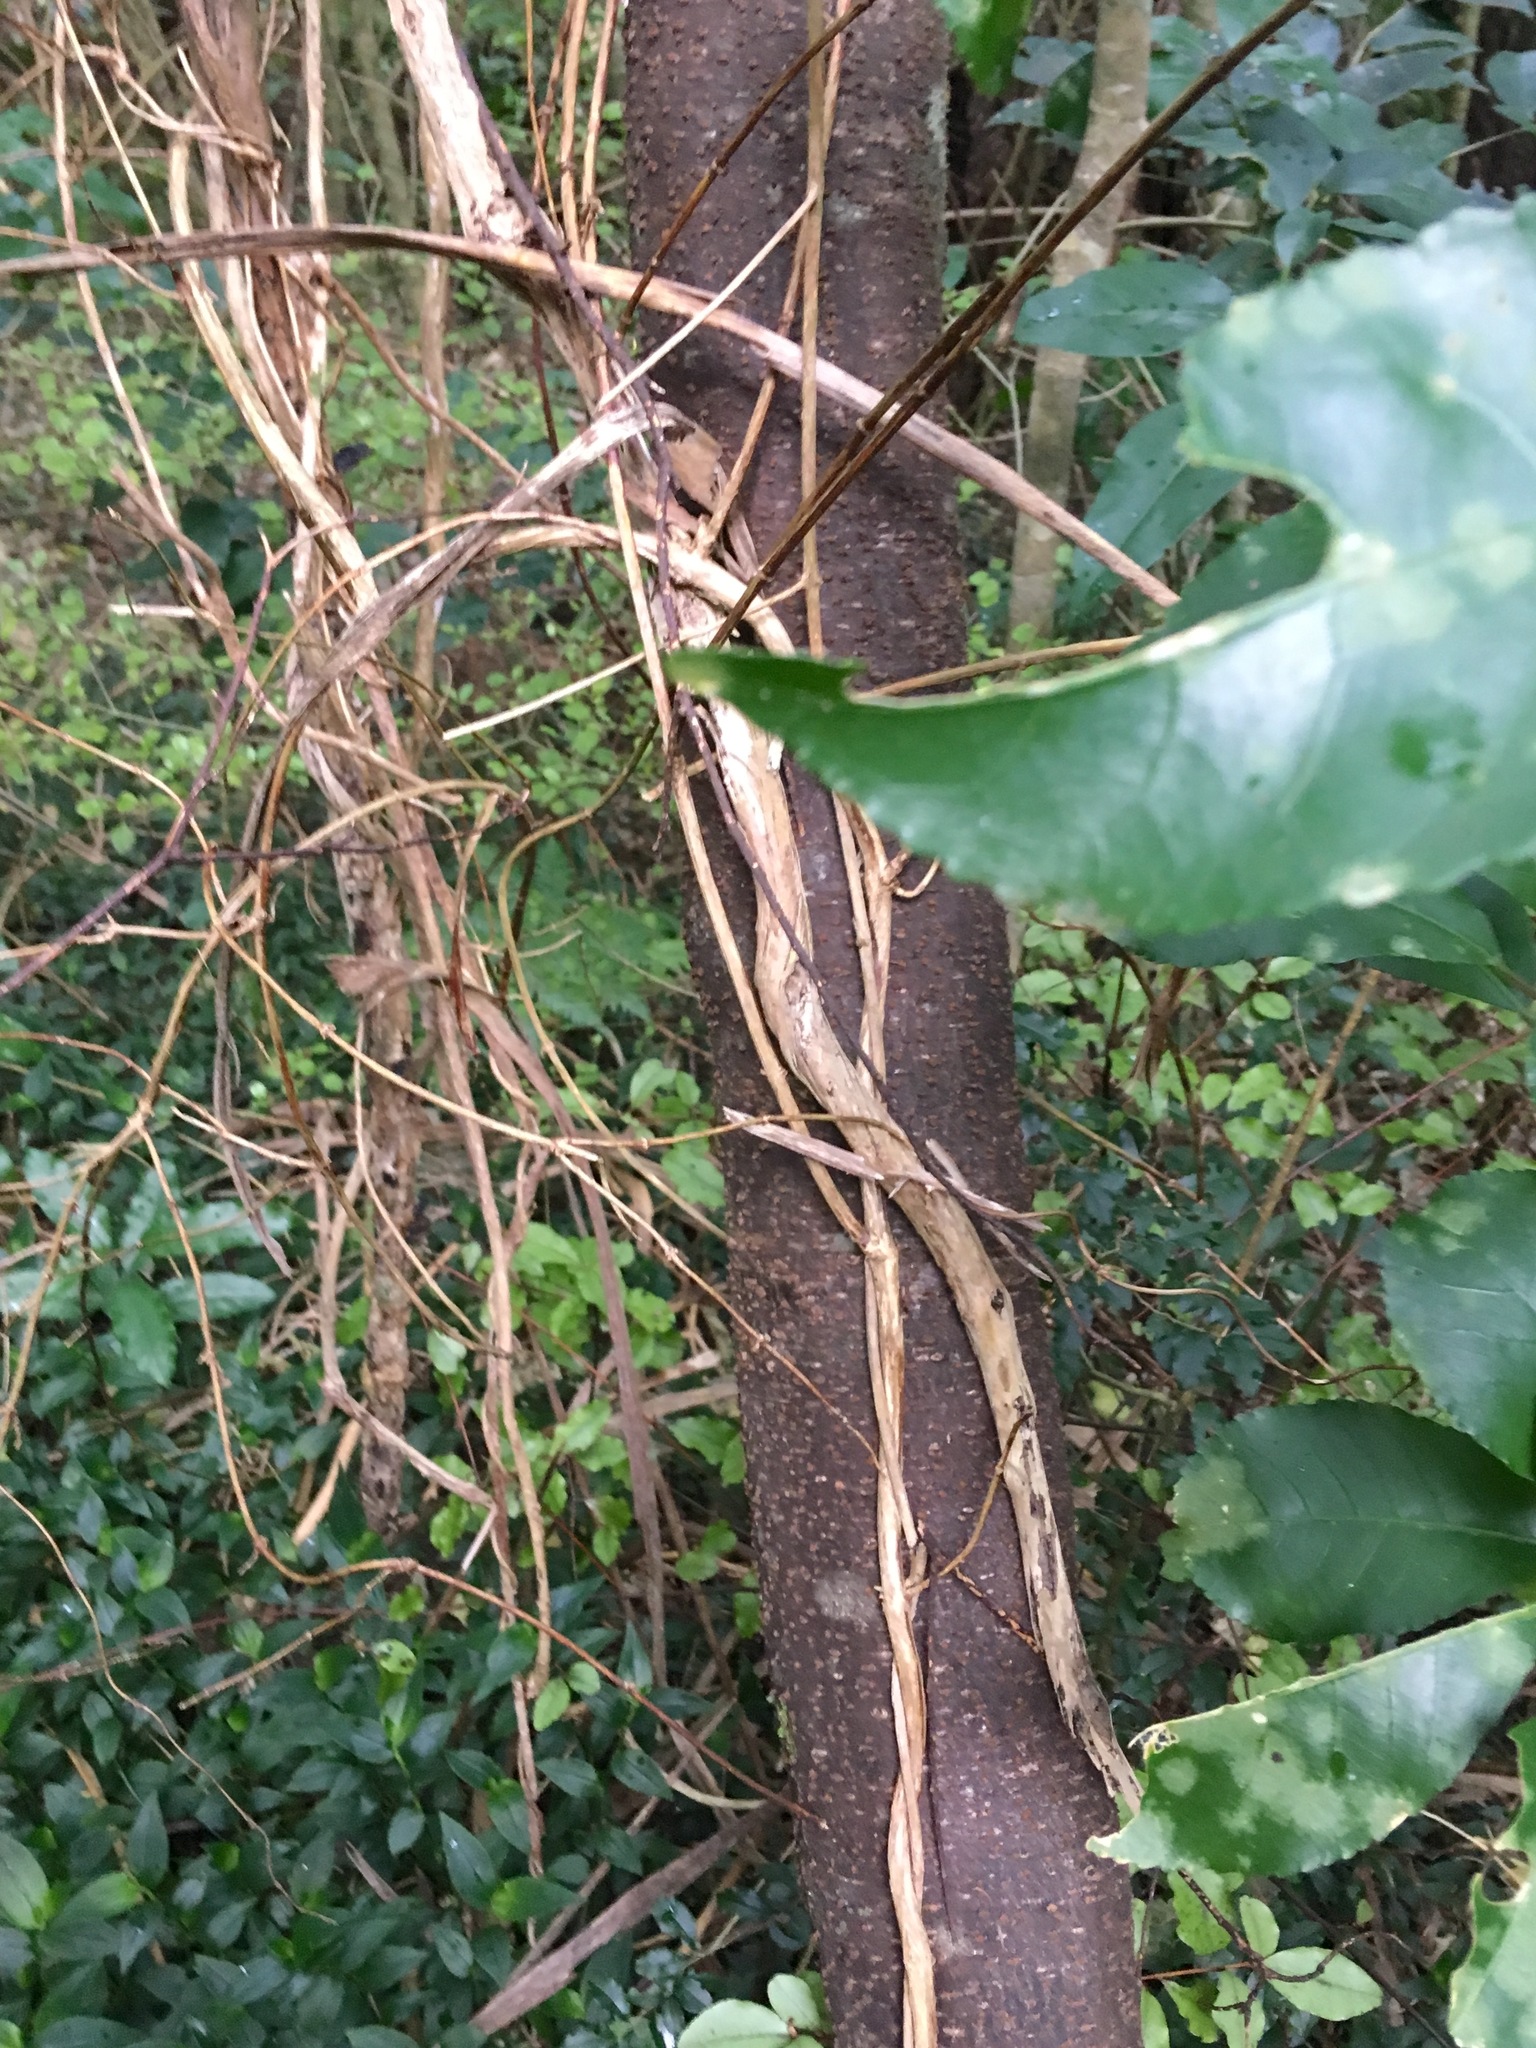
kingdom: Plantae
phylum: Tracheophyta
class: Magnoliopsida
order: Dipsacales
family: Caprifoliaceae
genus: Lonicera
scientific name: Lonicera japonica
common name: Japanese honeysuckle
